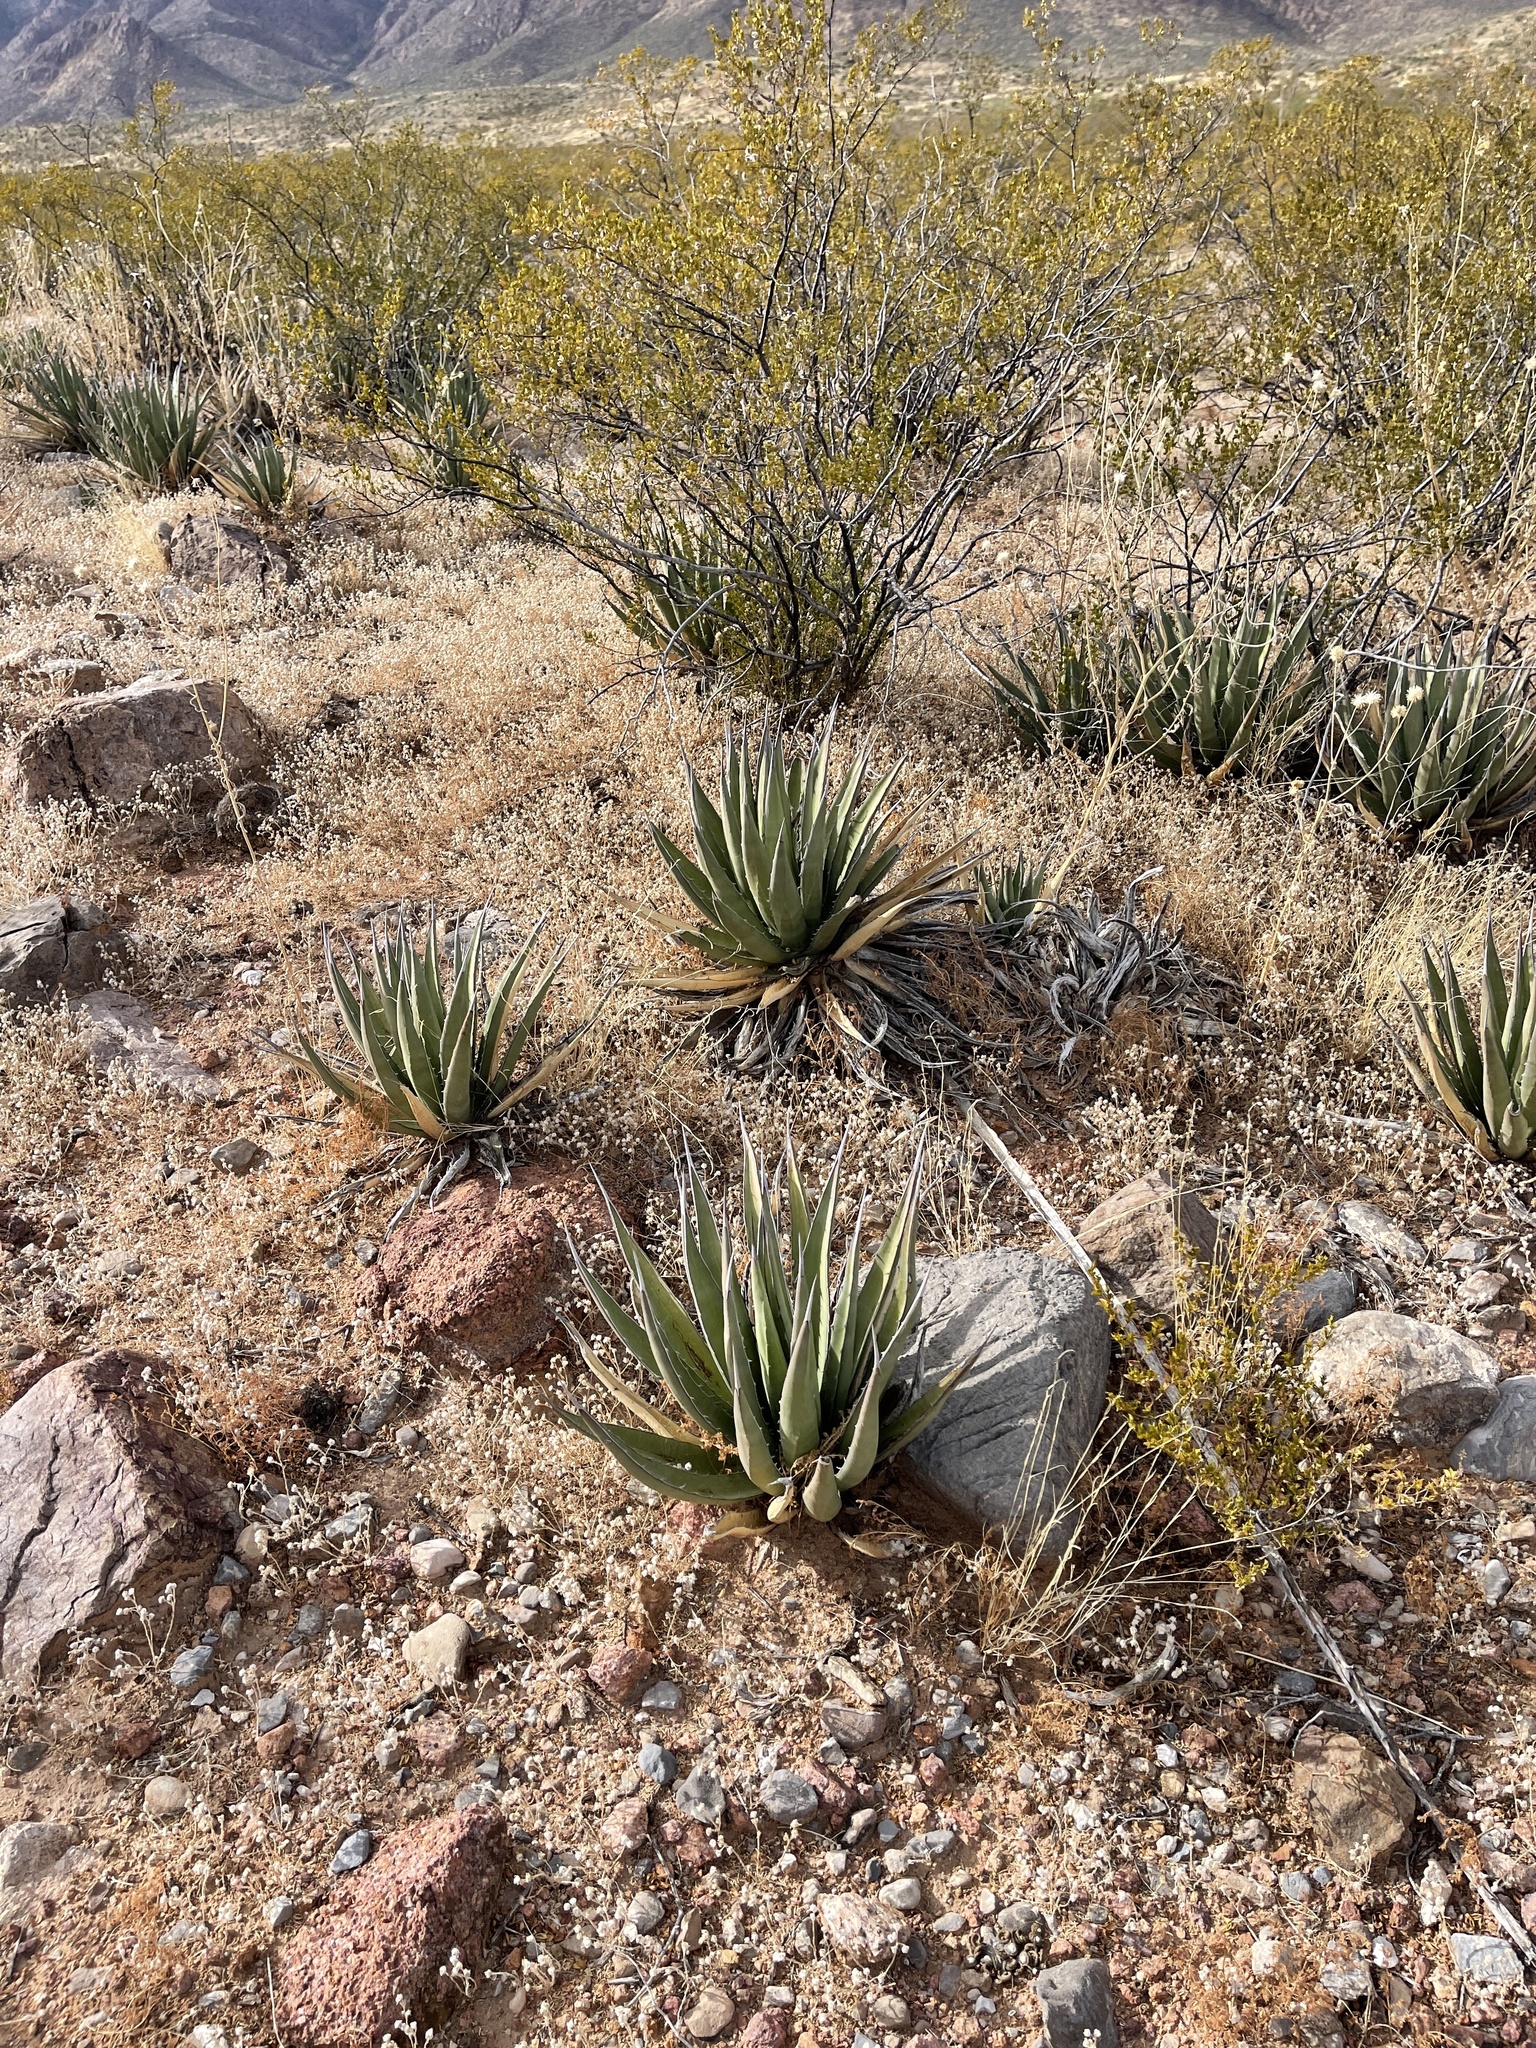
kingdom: Plantae
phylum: Tracheophyta
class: Liliopsida
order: Asparagales
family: Asparagaceae
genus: Agave
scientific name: Agave lechuguilla
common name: Lecheguilla agave
